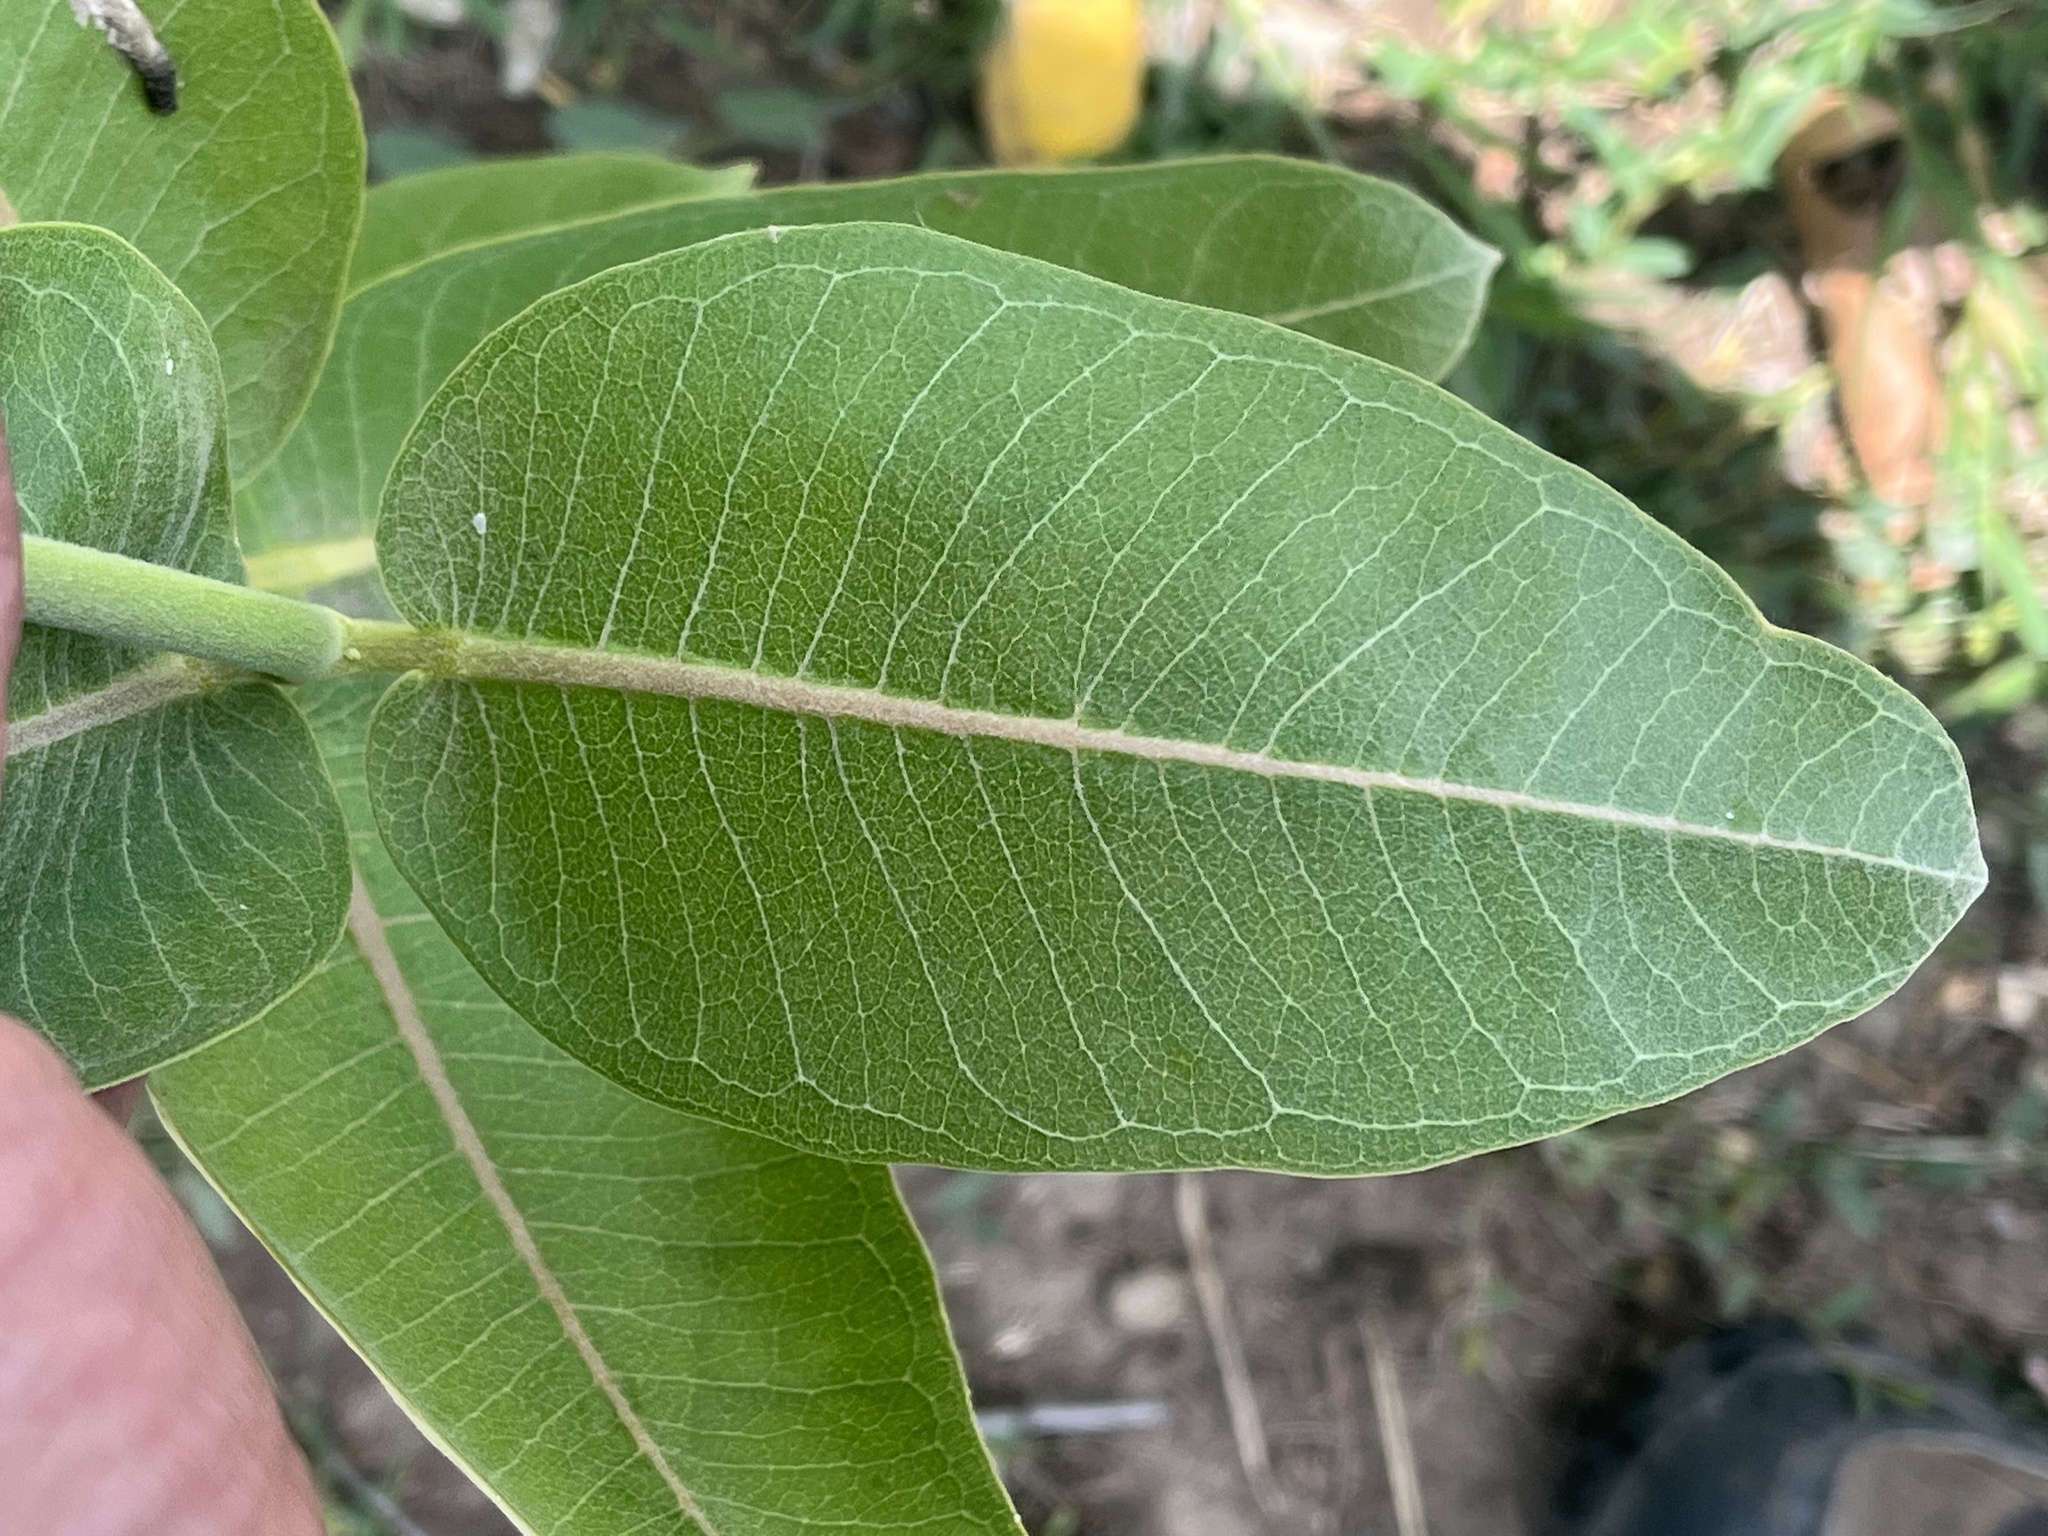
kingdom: Plantae
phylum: Tracheophyta
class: Magnoliopsida
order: Gentianales
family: Apocynaceae
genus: Asclepias
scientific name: Asclepias speciosa
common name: Showy milkweed
